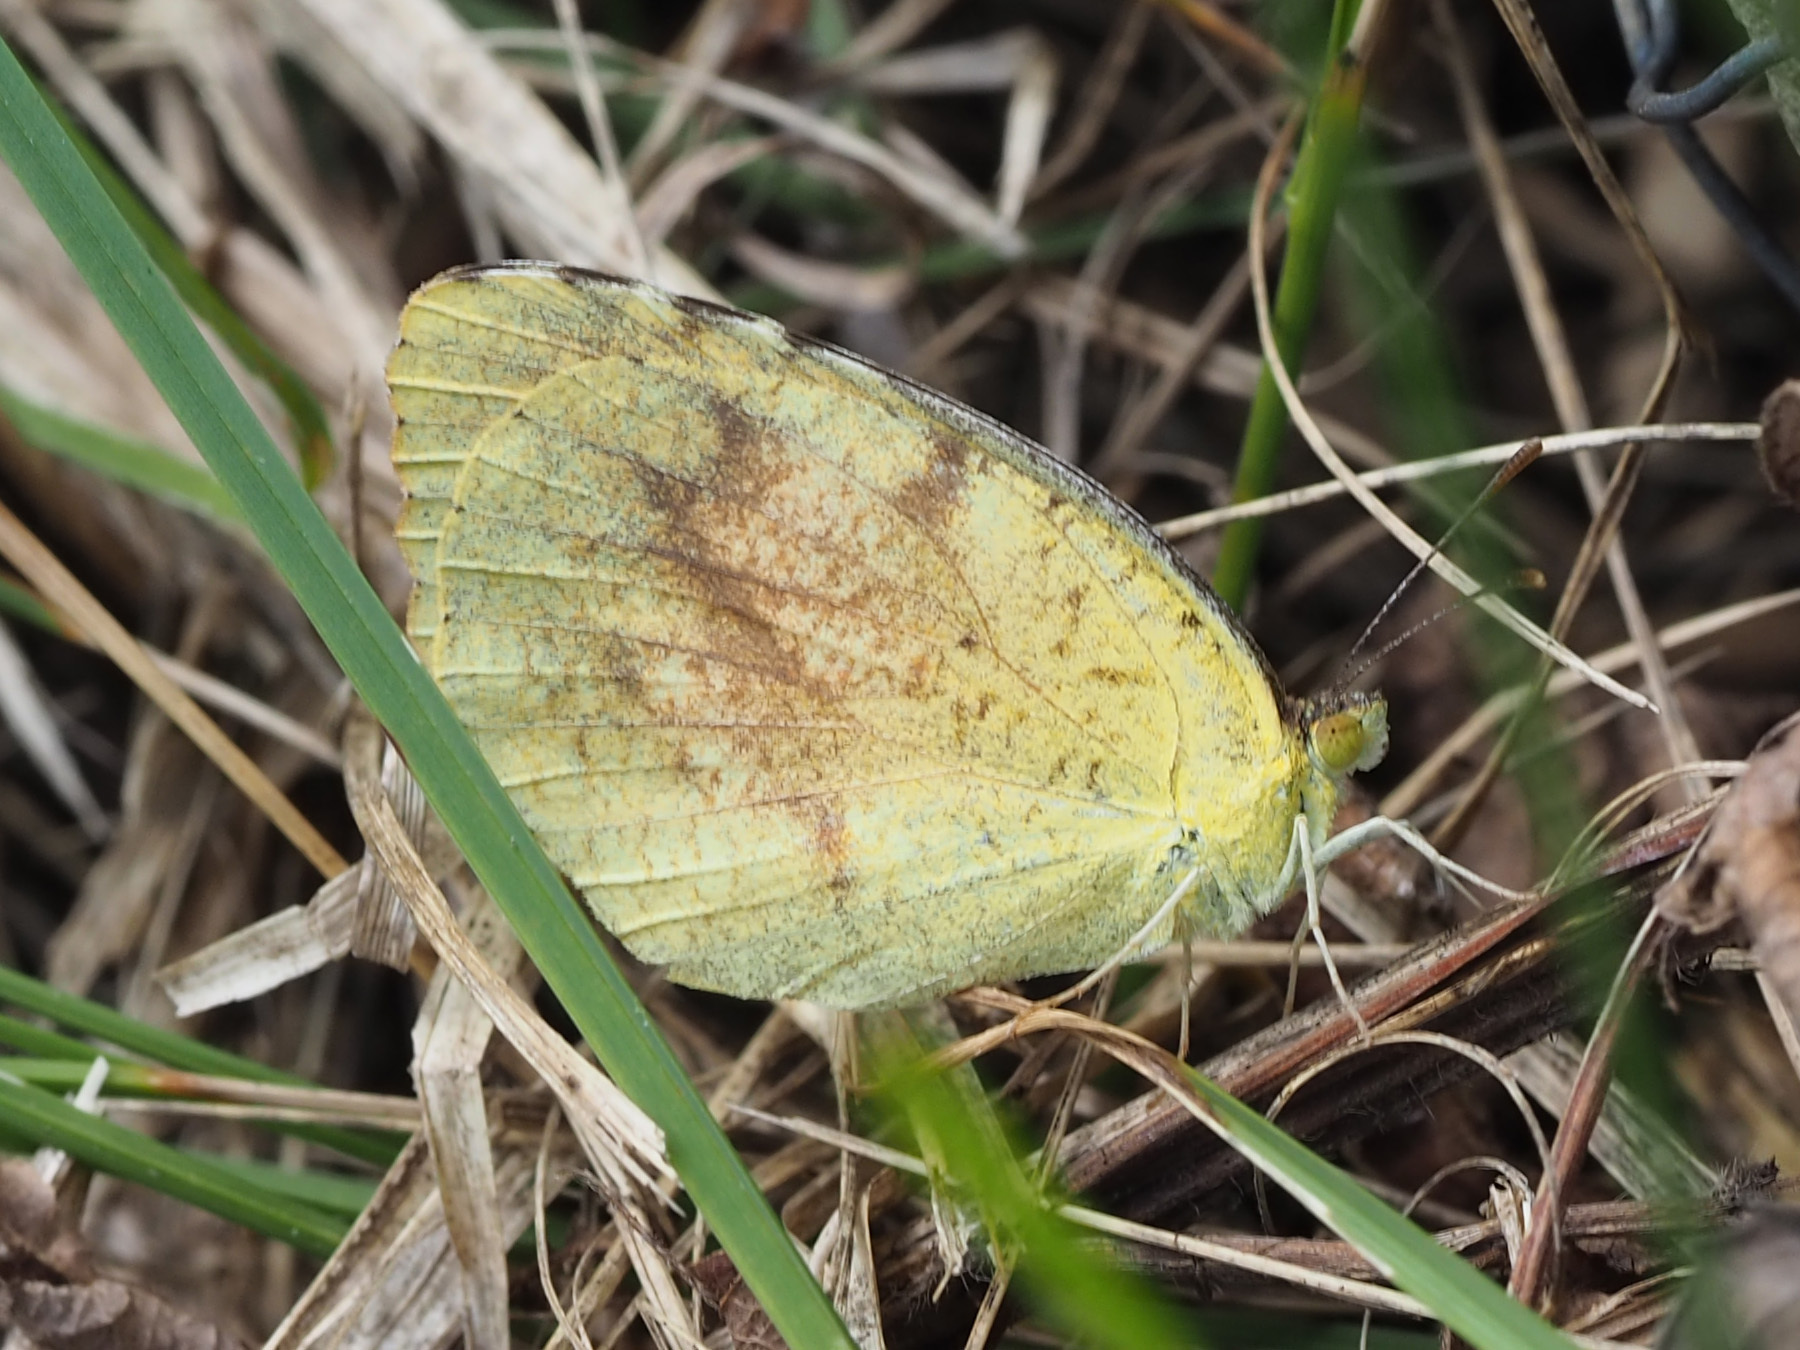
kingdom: Animalia
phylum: Arthropoda
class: Insecta
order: Lepidoptera
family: Pieridae
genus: Abaeis
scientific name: Abaeis nicippe
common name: Sleepy orange
